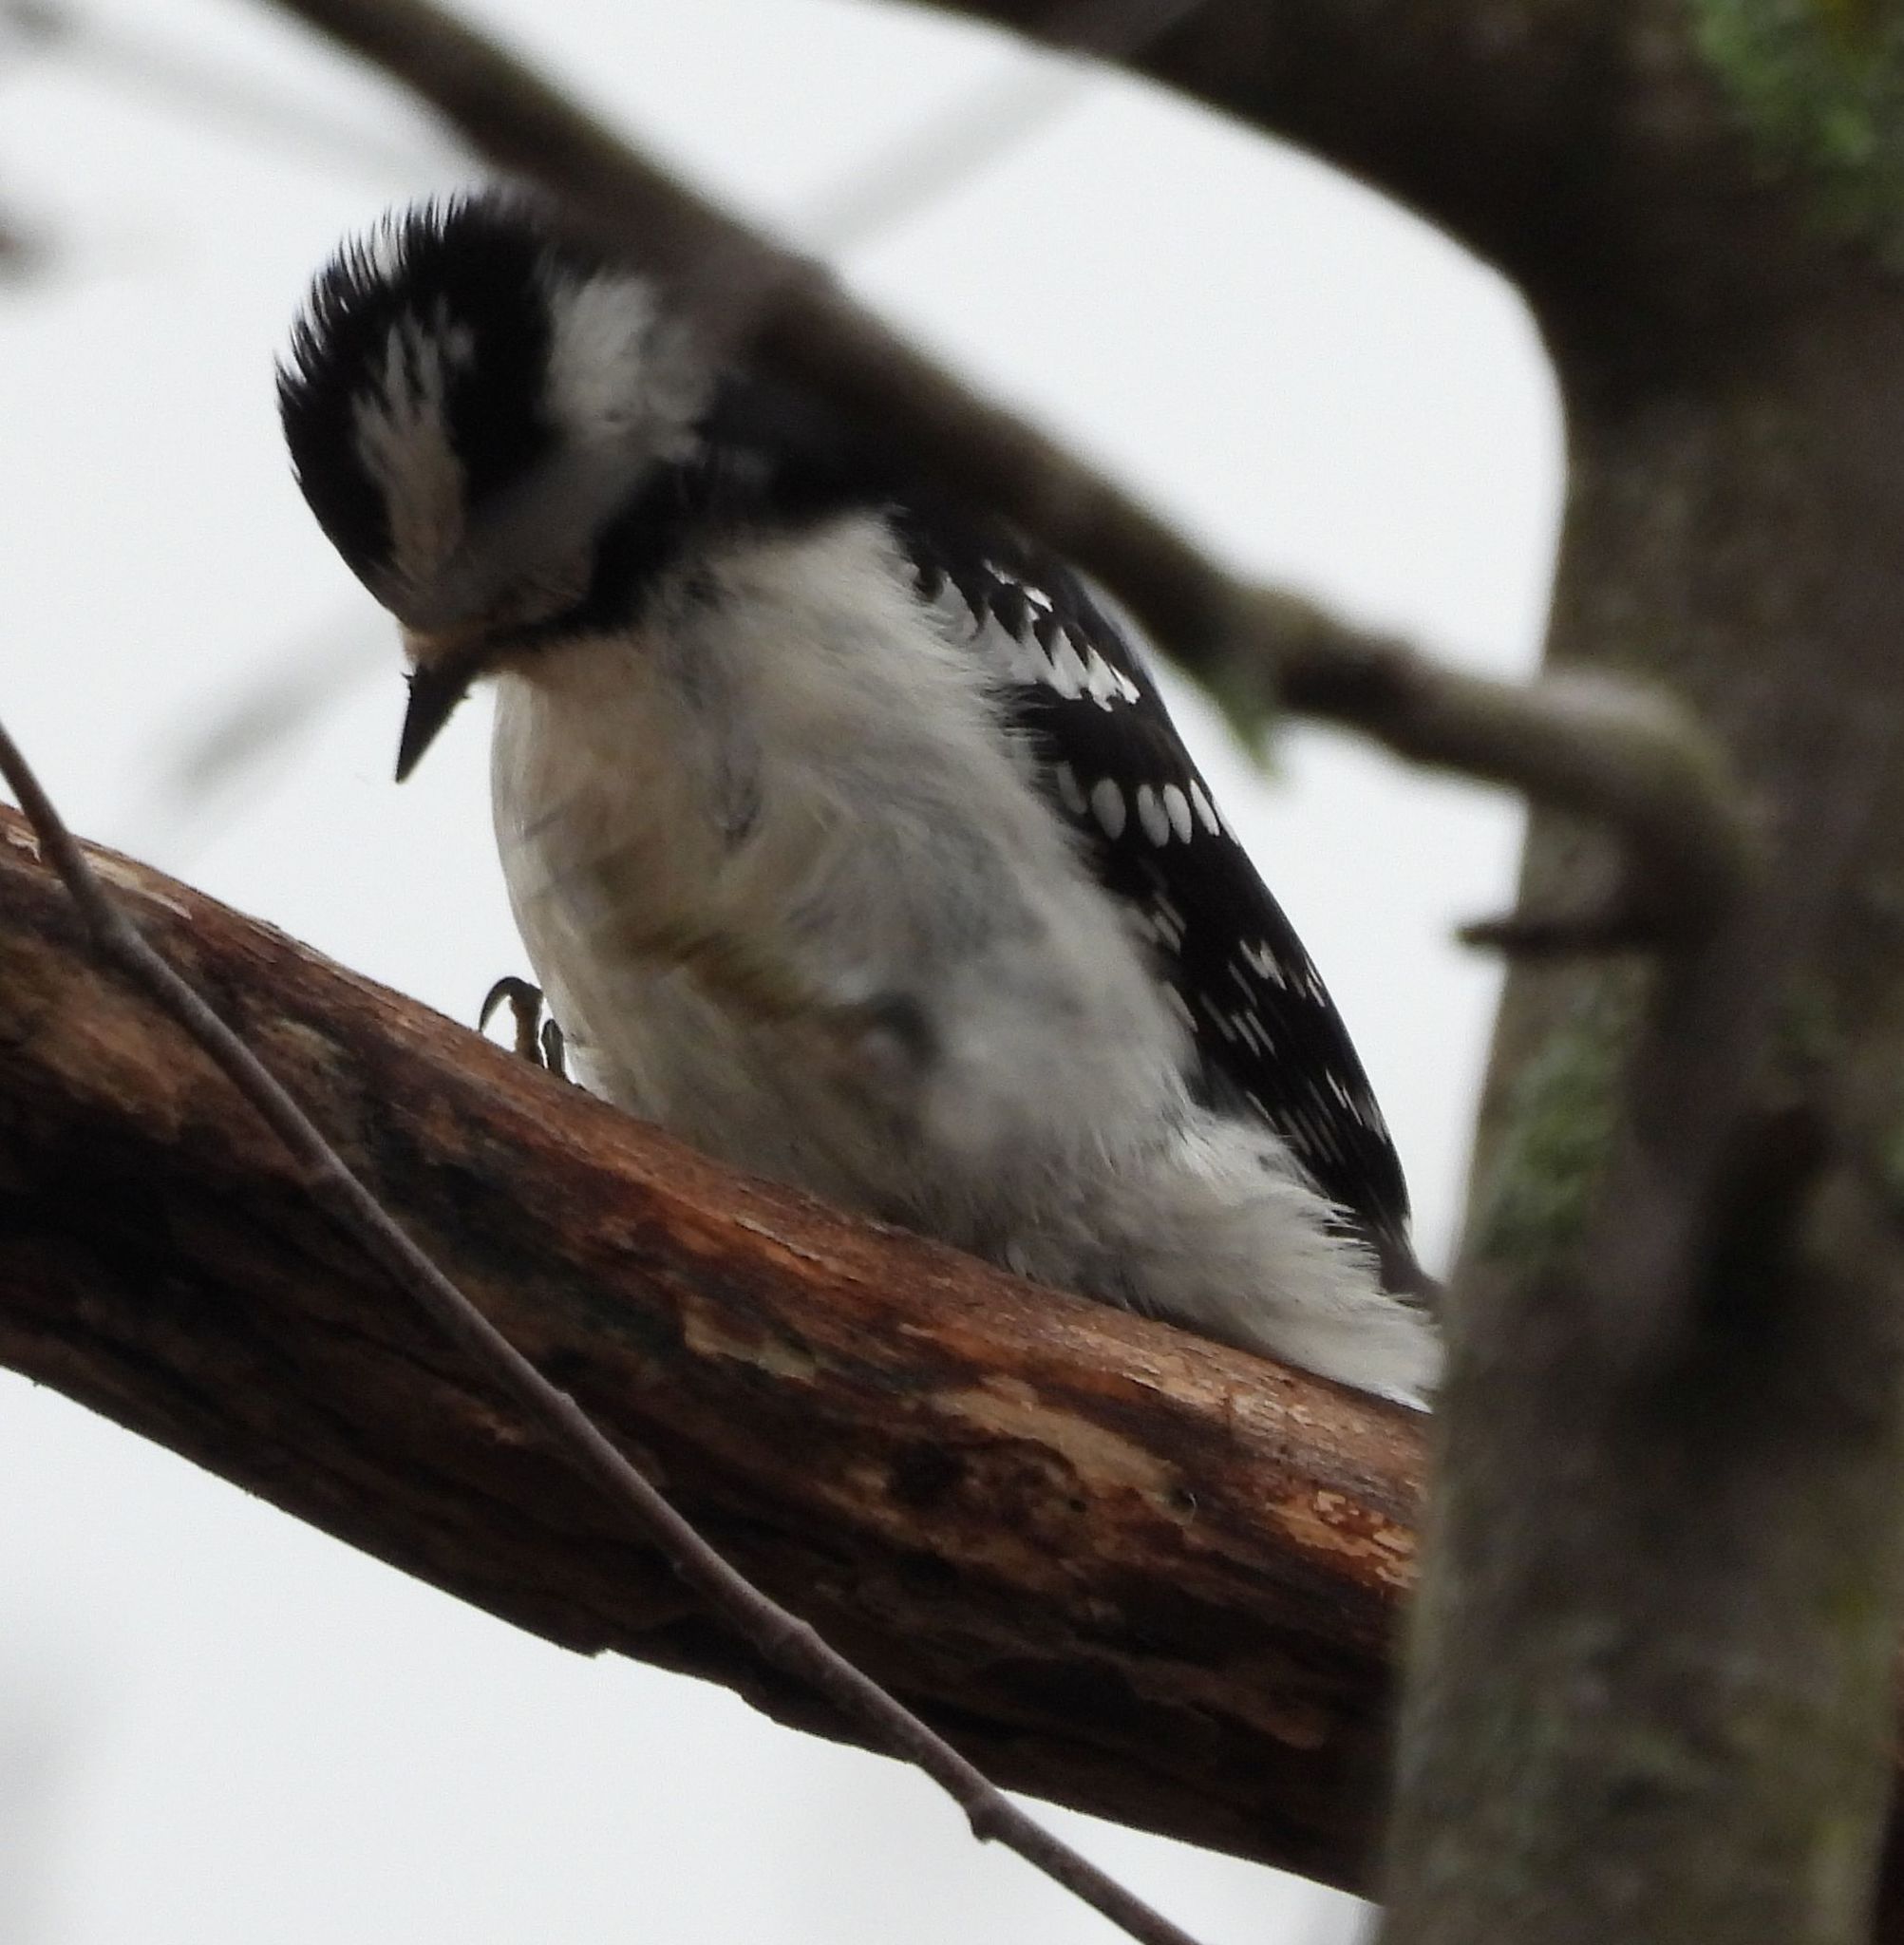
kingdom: Animalia
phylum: Chordata
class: Aves
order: Piciformes
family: Picidae
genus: Dryobates
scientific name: Dryobates pubescens
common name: Downy woodpecker
